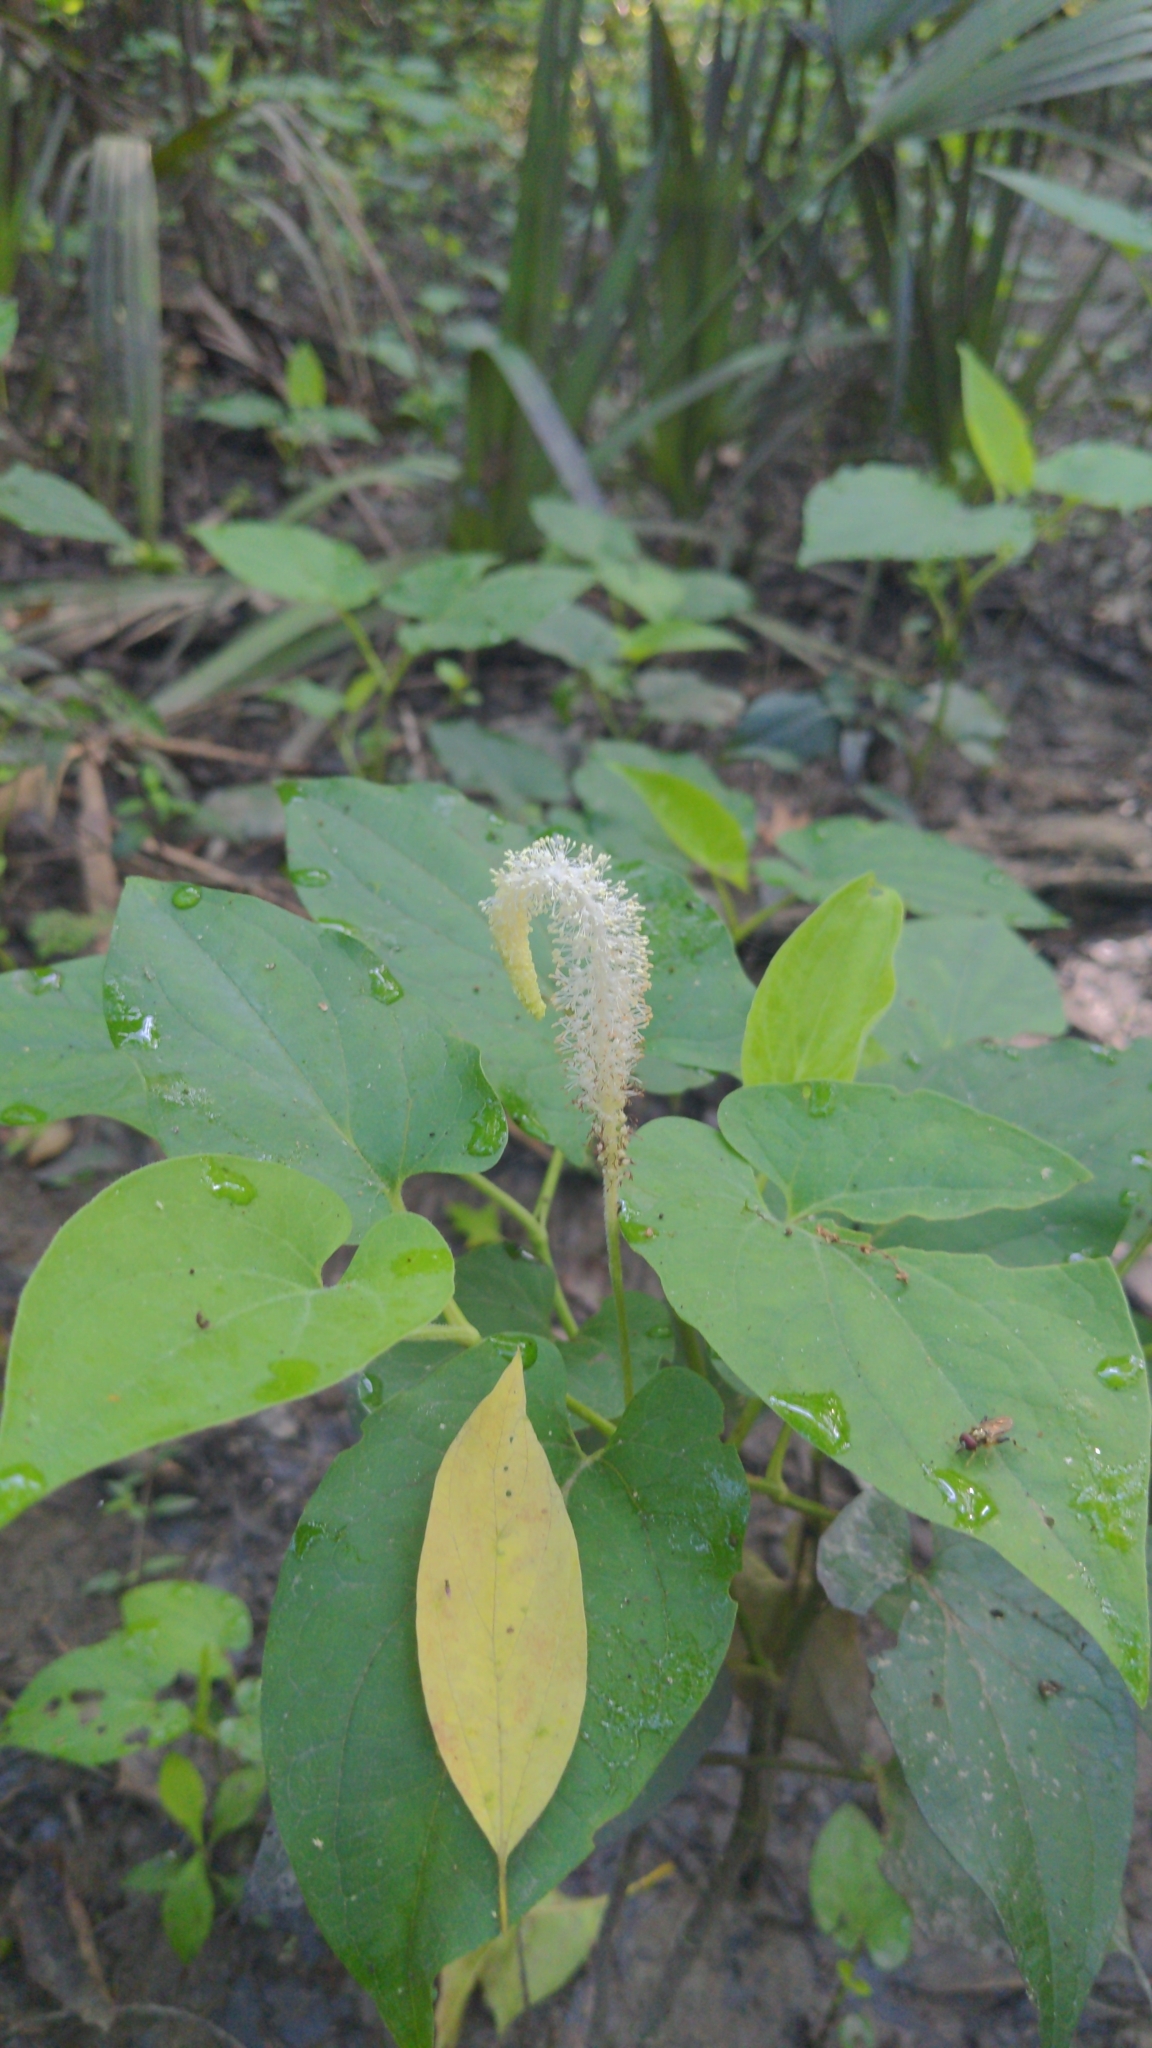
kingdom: Plantae
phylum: Tracheophyta
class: Magnoliopsida
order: Piperales
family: Saururaceae
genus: Saururus
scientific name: Saururus cernuus
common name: Lizard's-tail
